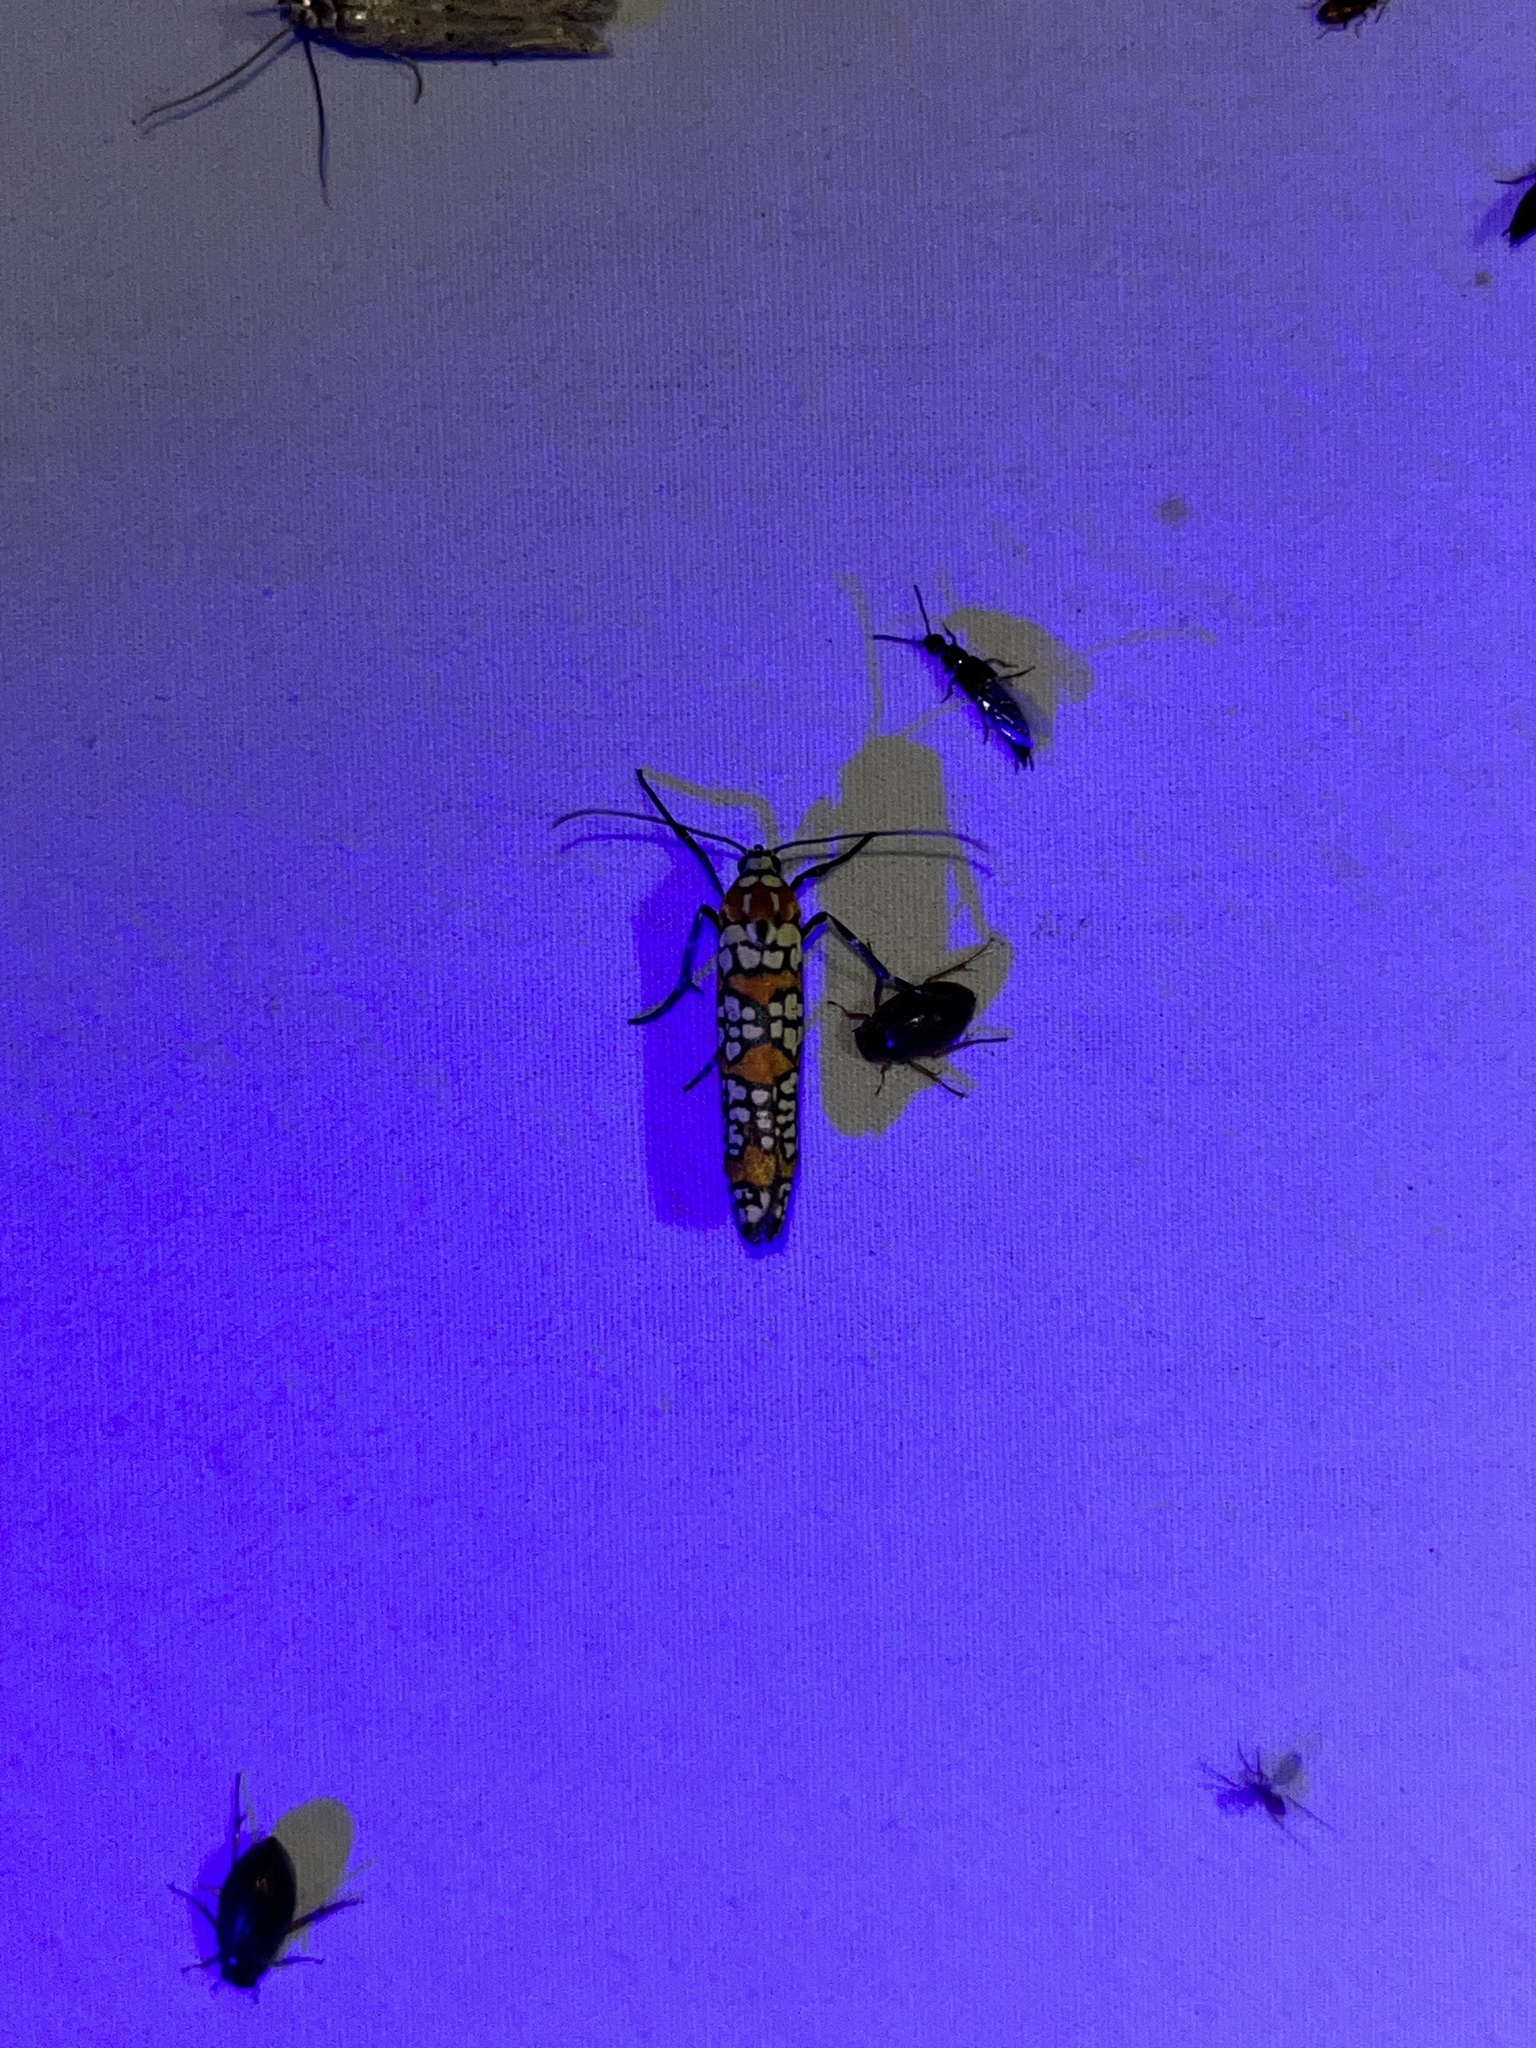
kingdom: Animalia
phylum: Arthropoda
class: Insecta
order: Lepidoptera
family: Attevidae
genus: Atteva
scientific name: Atteva punctella
